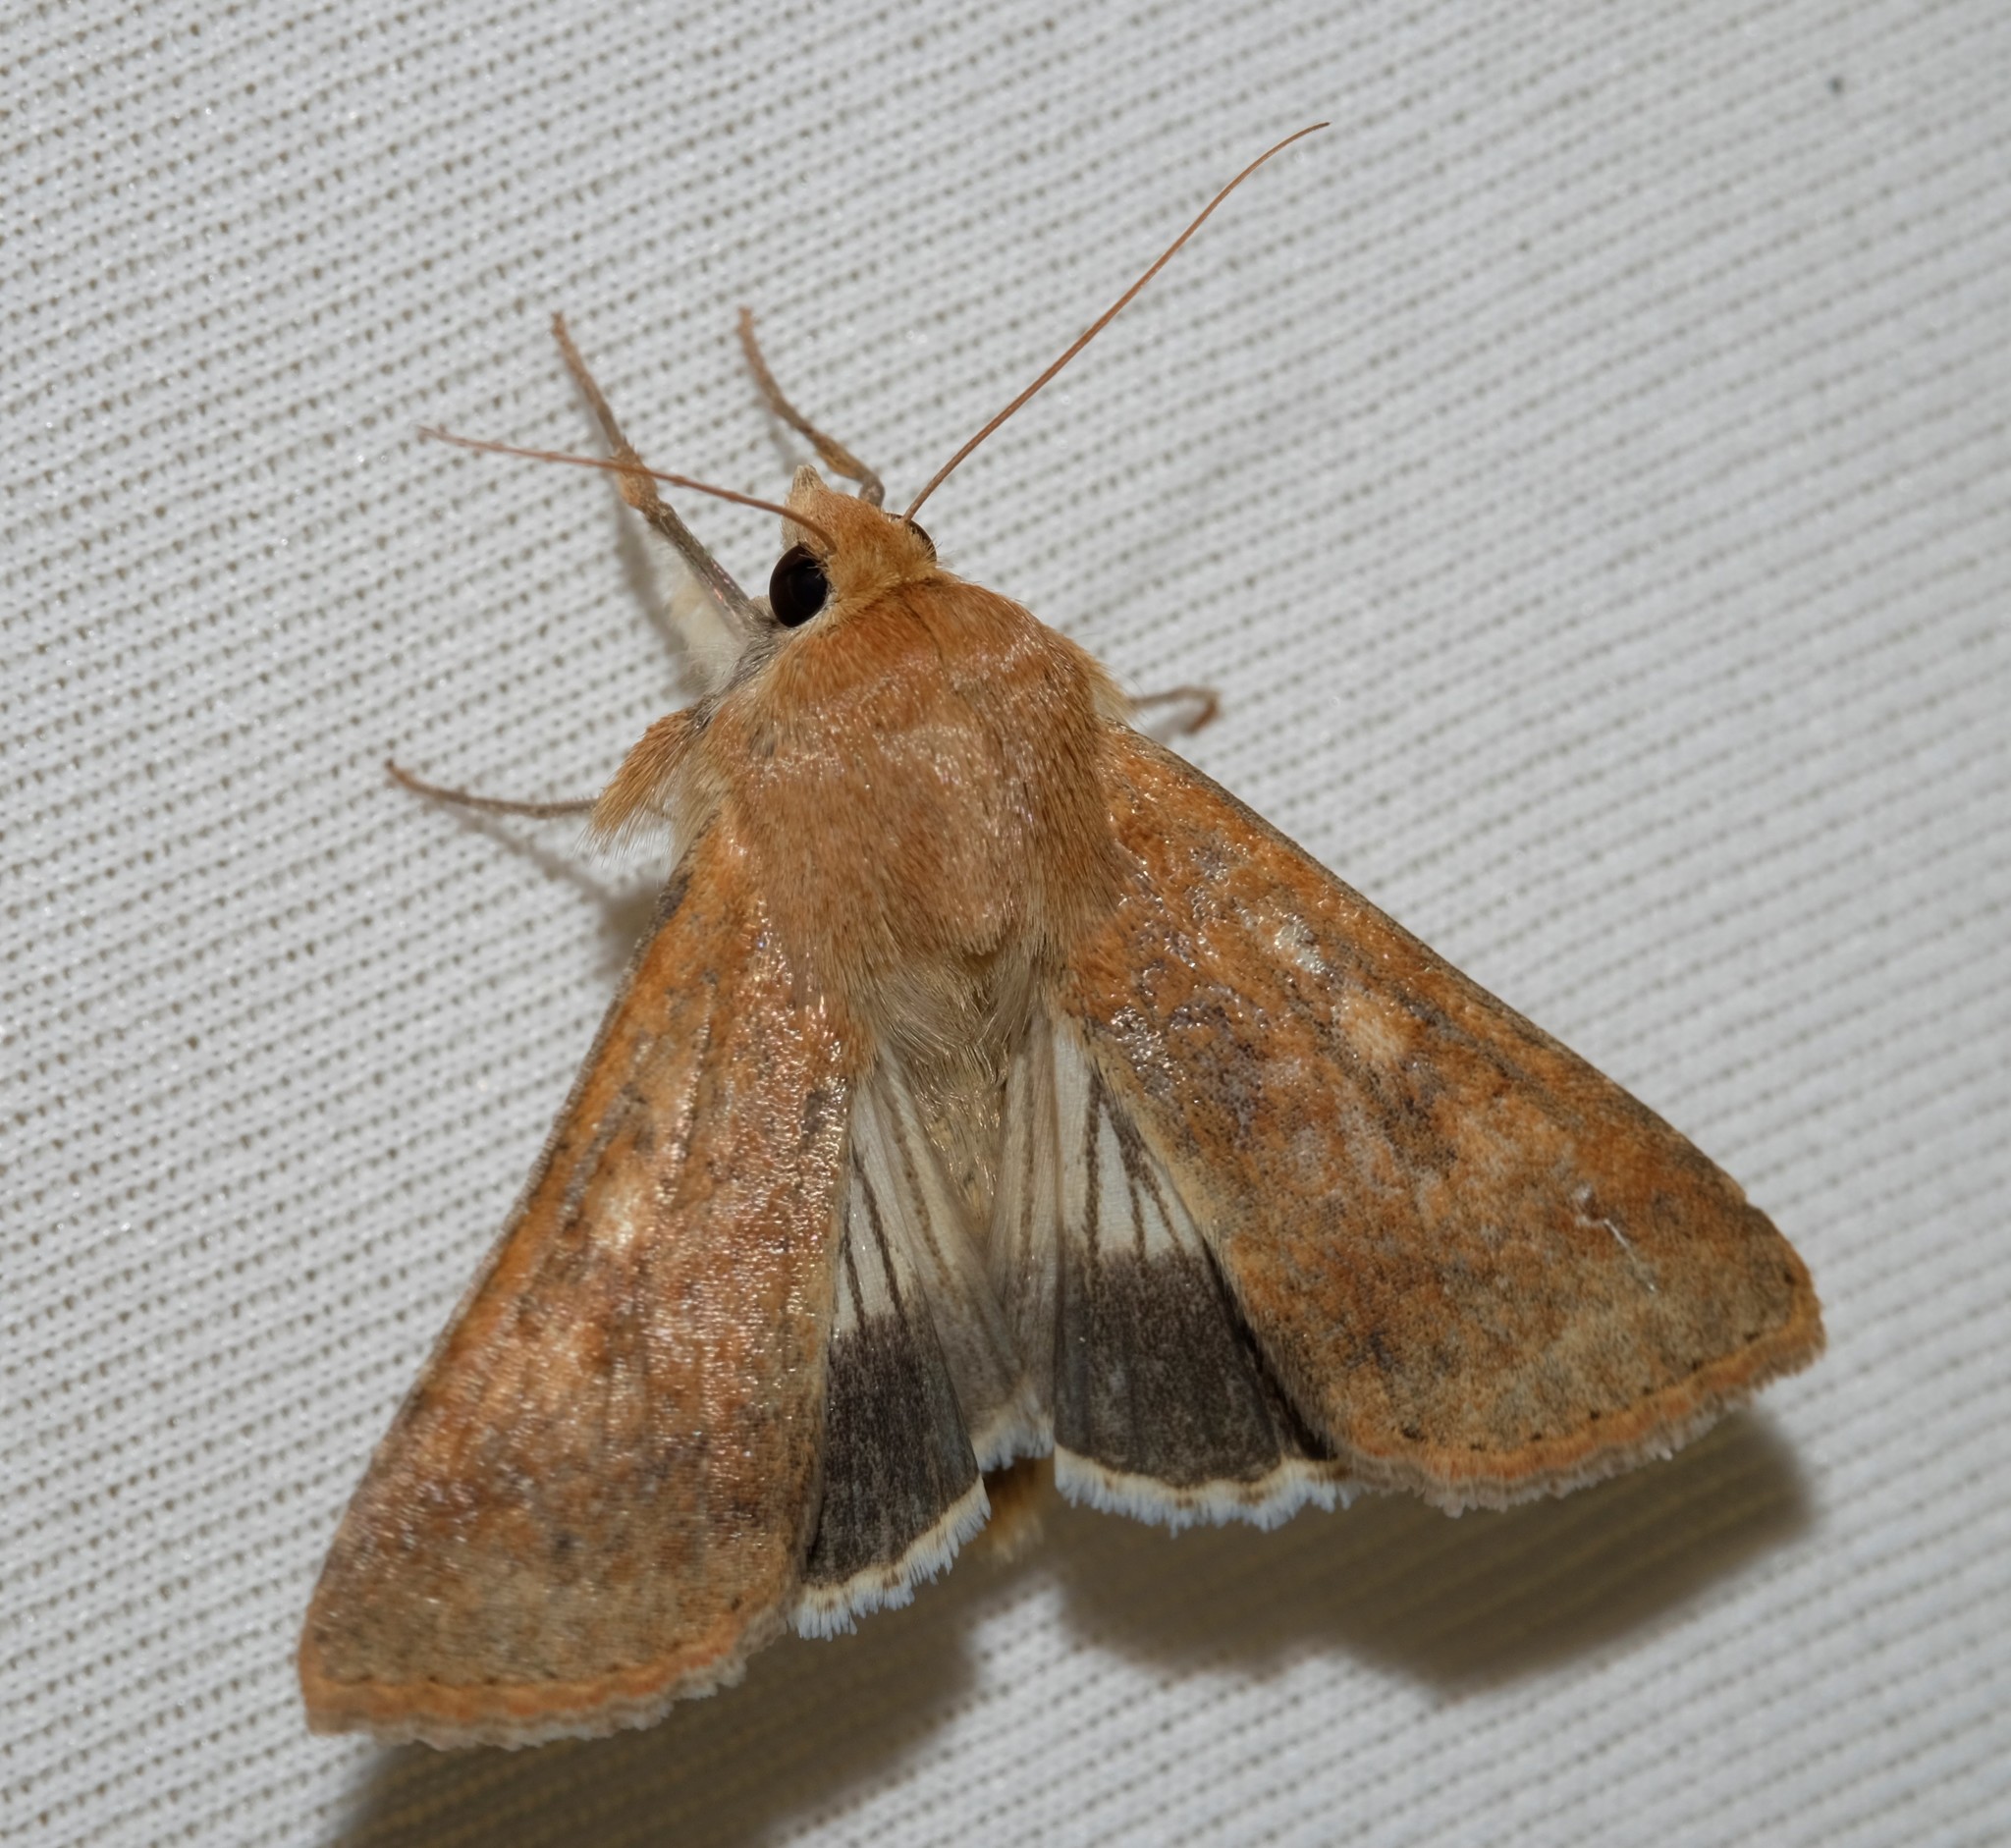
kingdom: Animalia
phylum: Arthropoda
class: Insecta
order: Lepidoptera
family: Noctuidae
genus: Helicoverpa
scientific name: Helicoverpa punctigera
